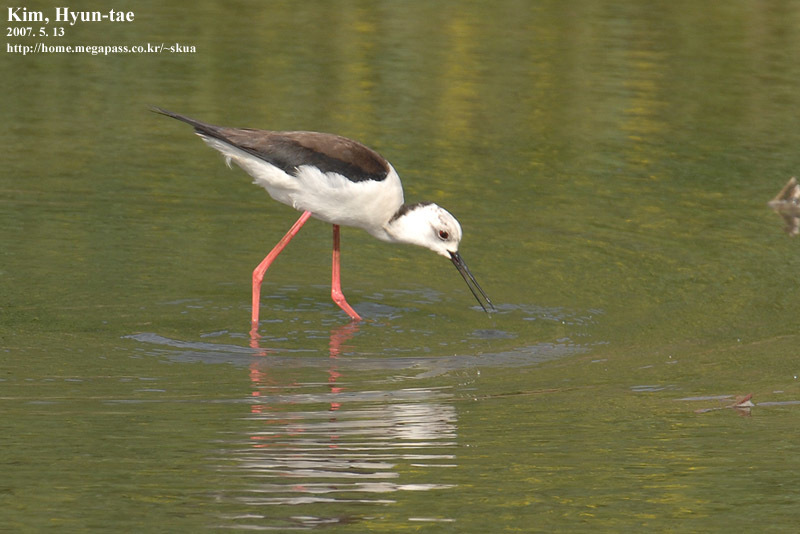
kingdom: Animalia
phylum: Chordata
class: Aves
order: Charadriiformes
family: Recurvirostridae
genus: Himantopus
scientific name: Himantopus himantopus
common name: Black-winged stilt
